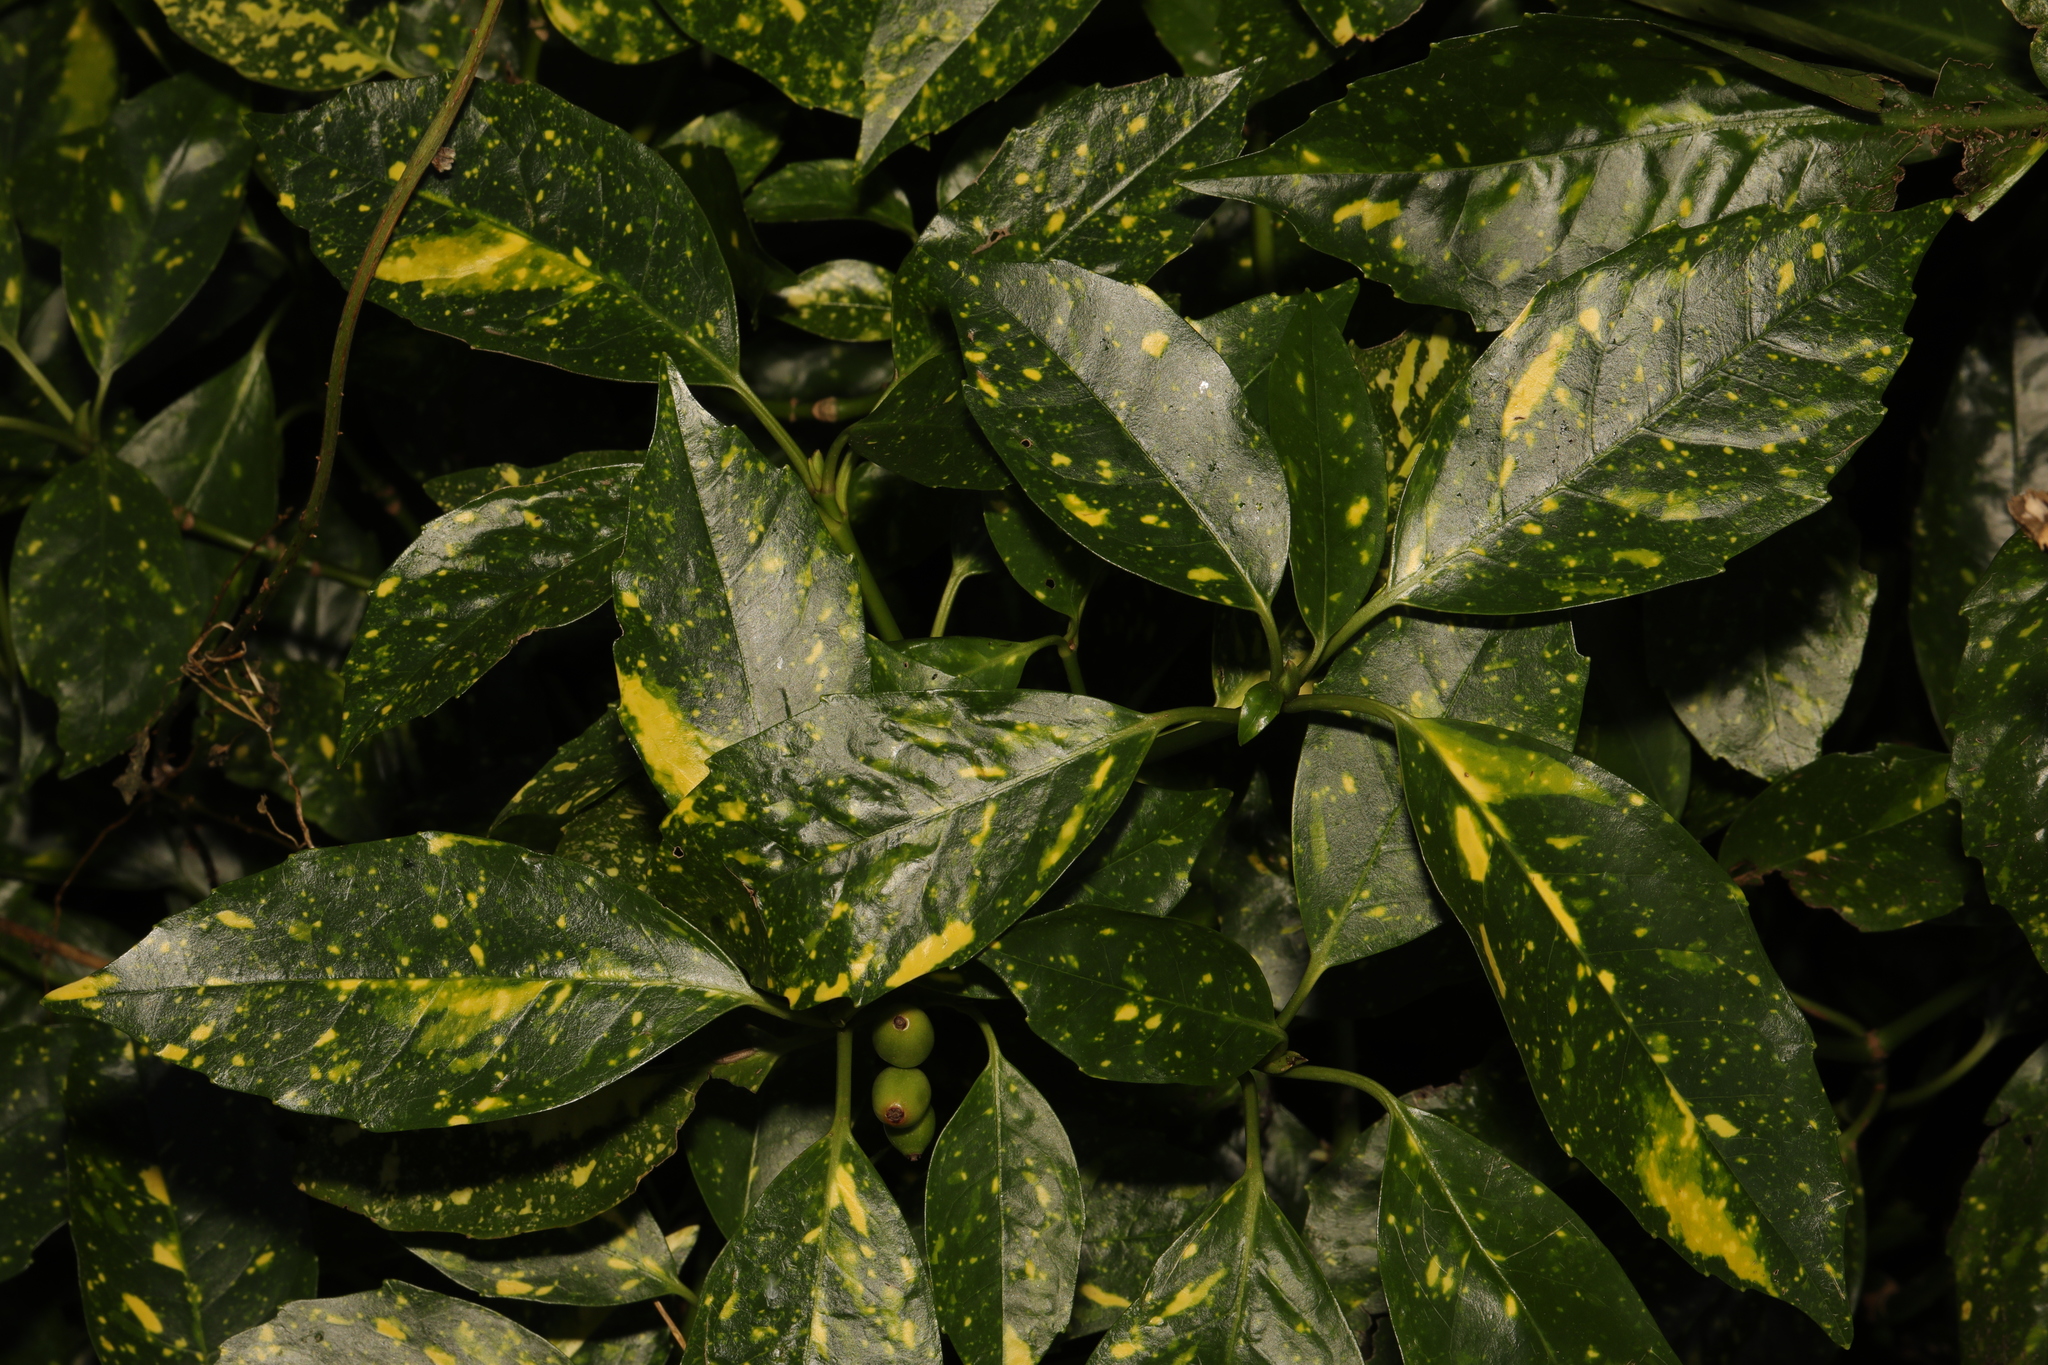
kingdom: Plantae
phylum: Tracheophyta
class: Magnoliopsida
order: Garryales
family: Garryaceae
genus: Aucuba
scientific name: Aucuba japonica
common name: Spotted-laurel
